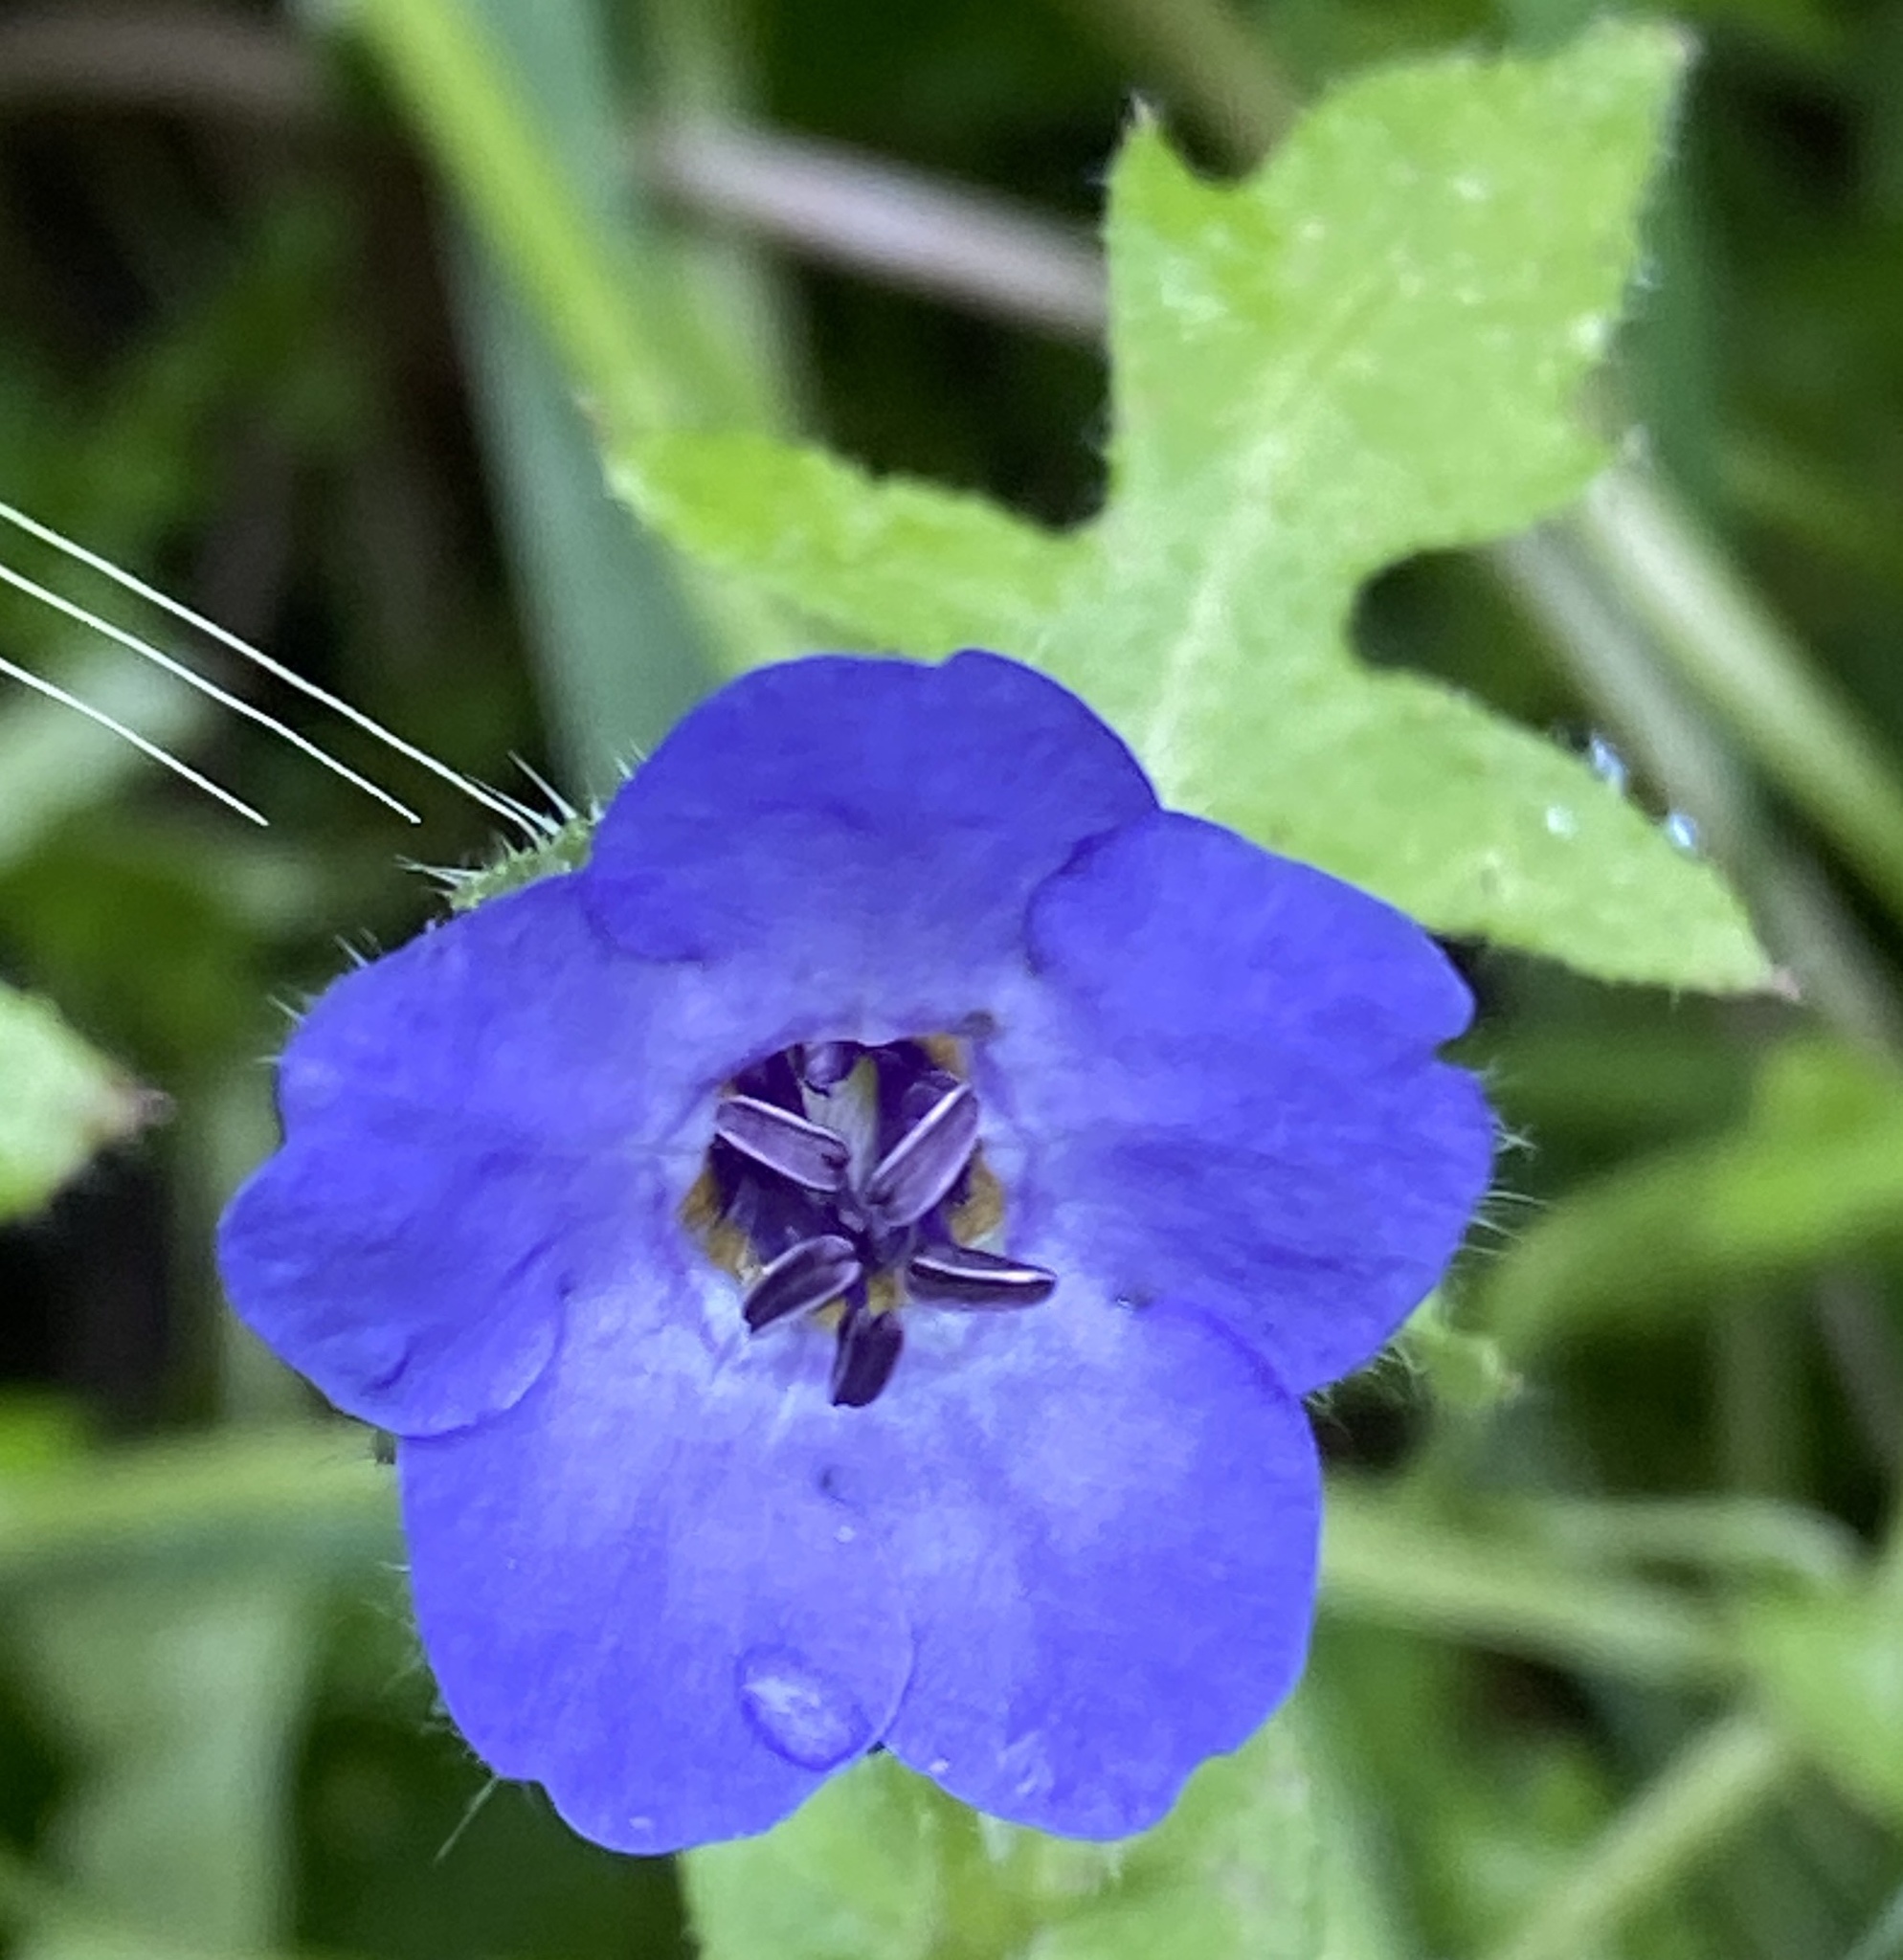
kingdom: Plantae
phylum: Tracheophyta
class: Magnoliopsida
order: Boraginales
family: Hydrophyllaceae
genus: Pholistoma
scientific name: Pholistoma auritum
